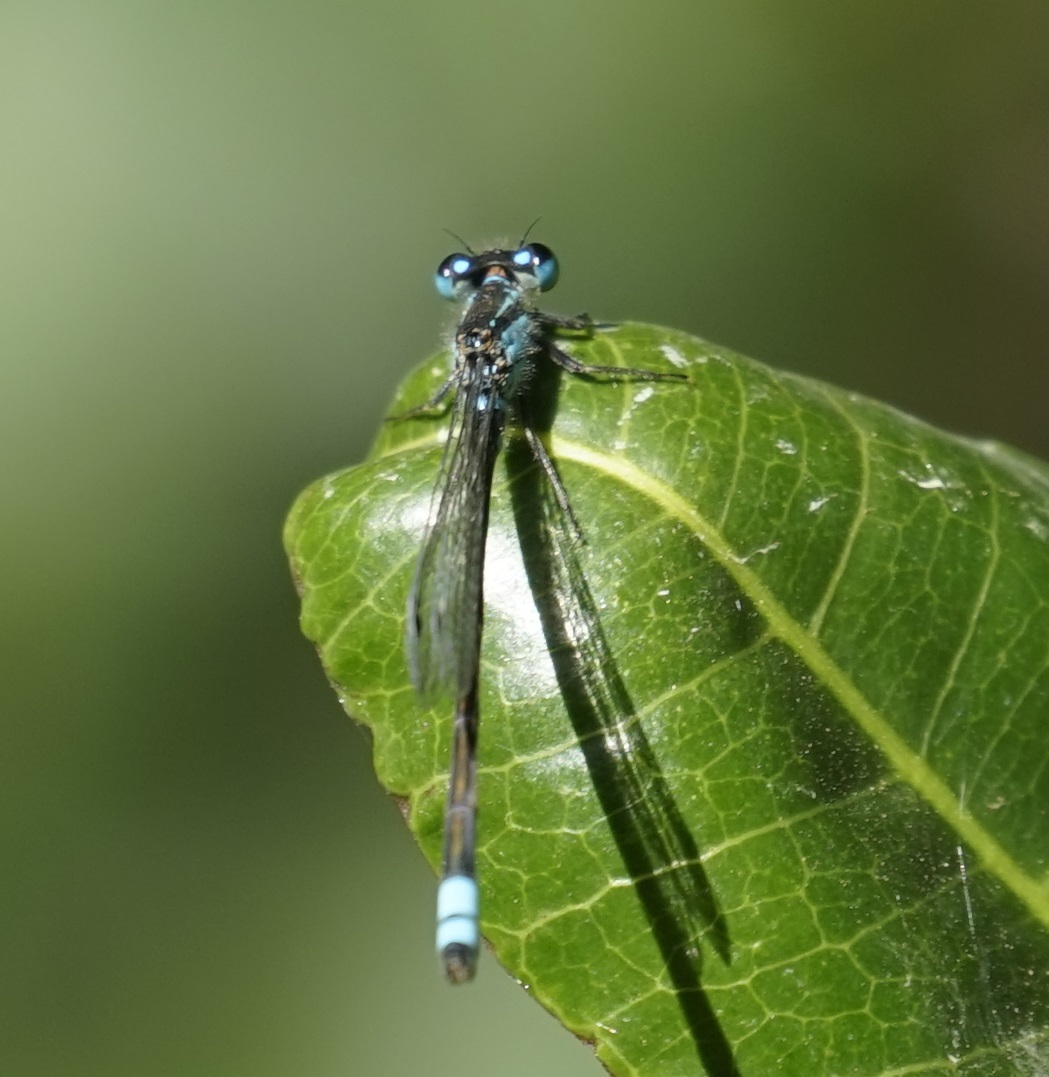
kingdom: Animalia
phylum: Arthropoda
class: Insecta
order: Odonata
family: Coenagrionidae
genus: Ischnura
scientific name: Ischnura heterosticta
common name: Common bluetail
